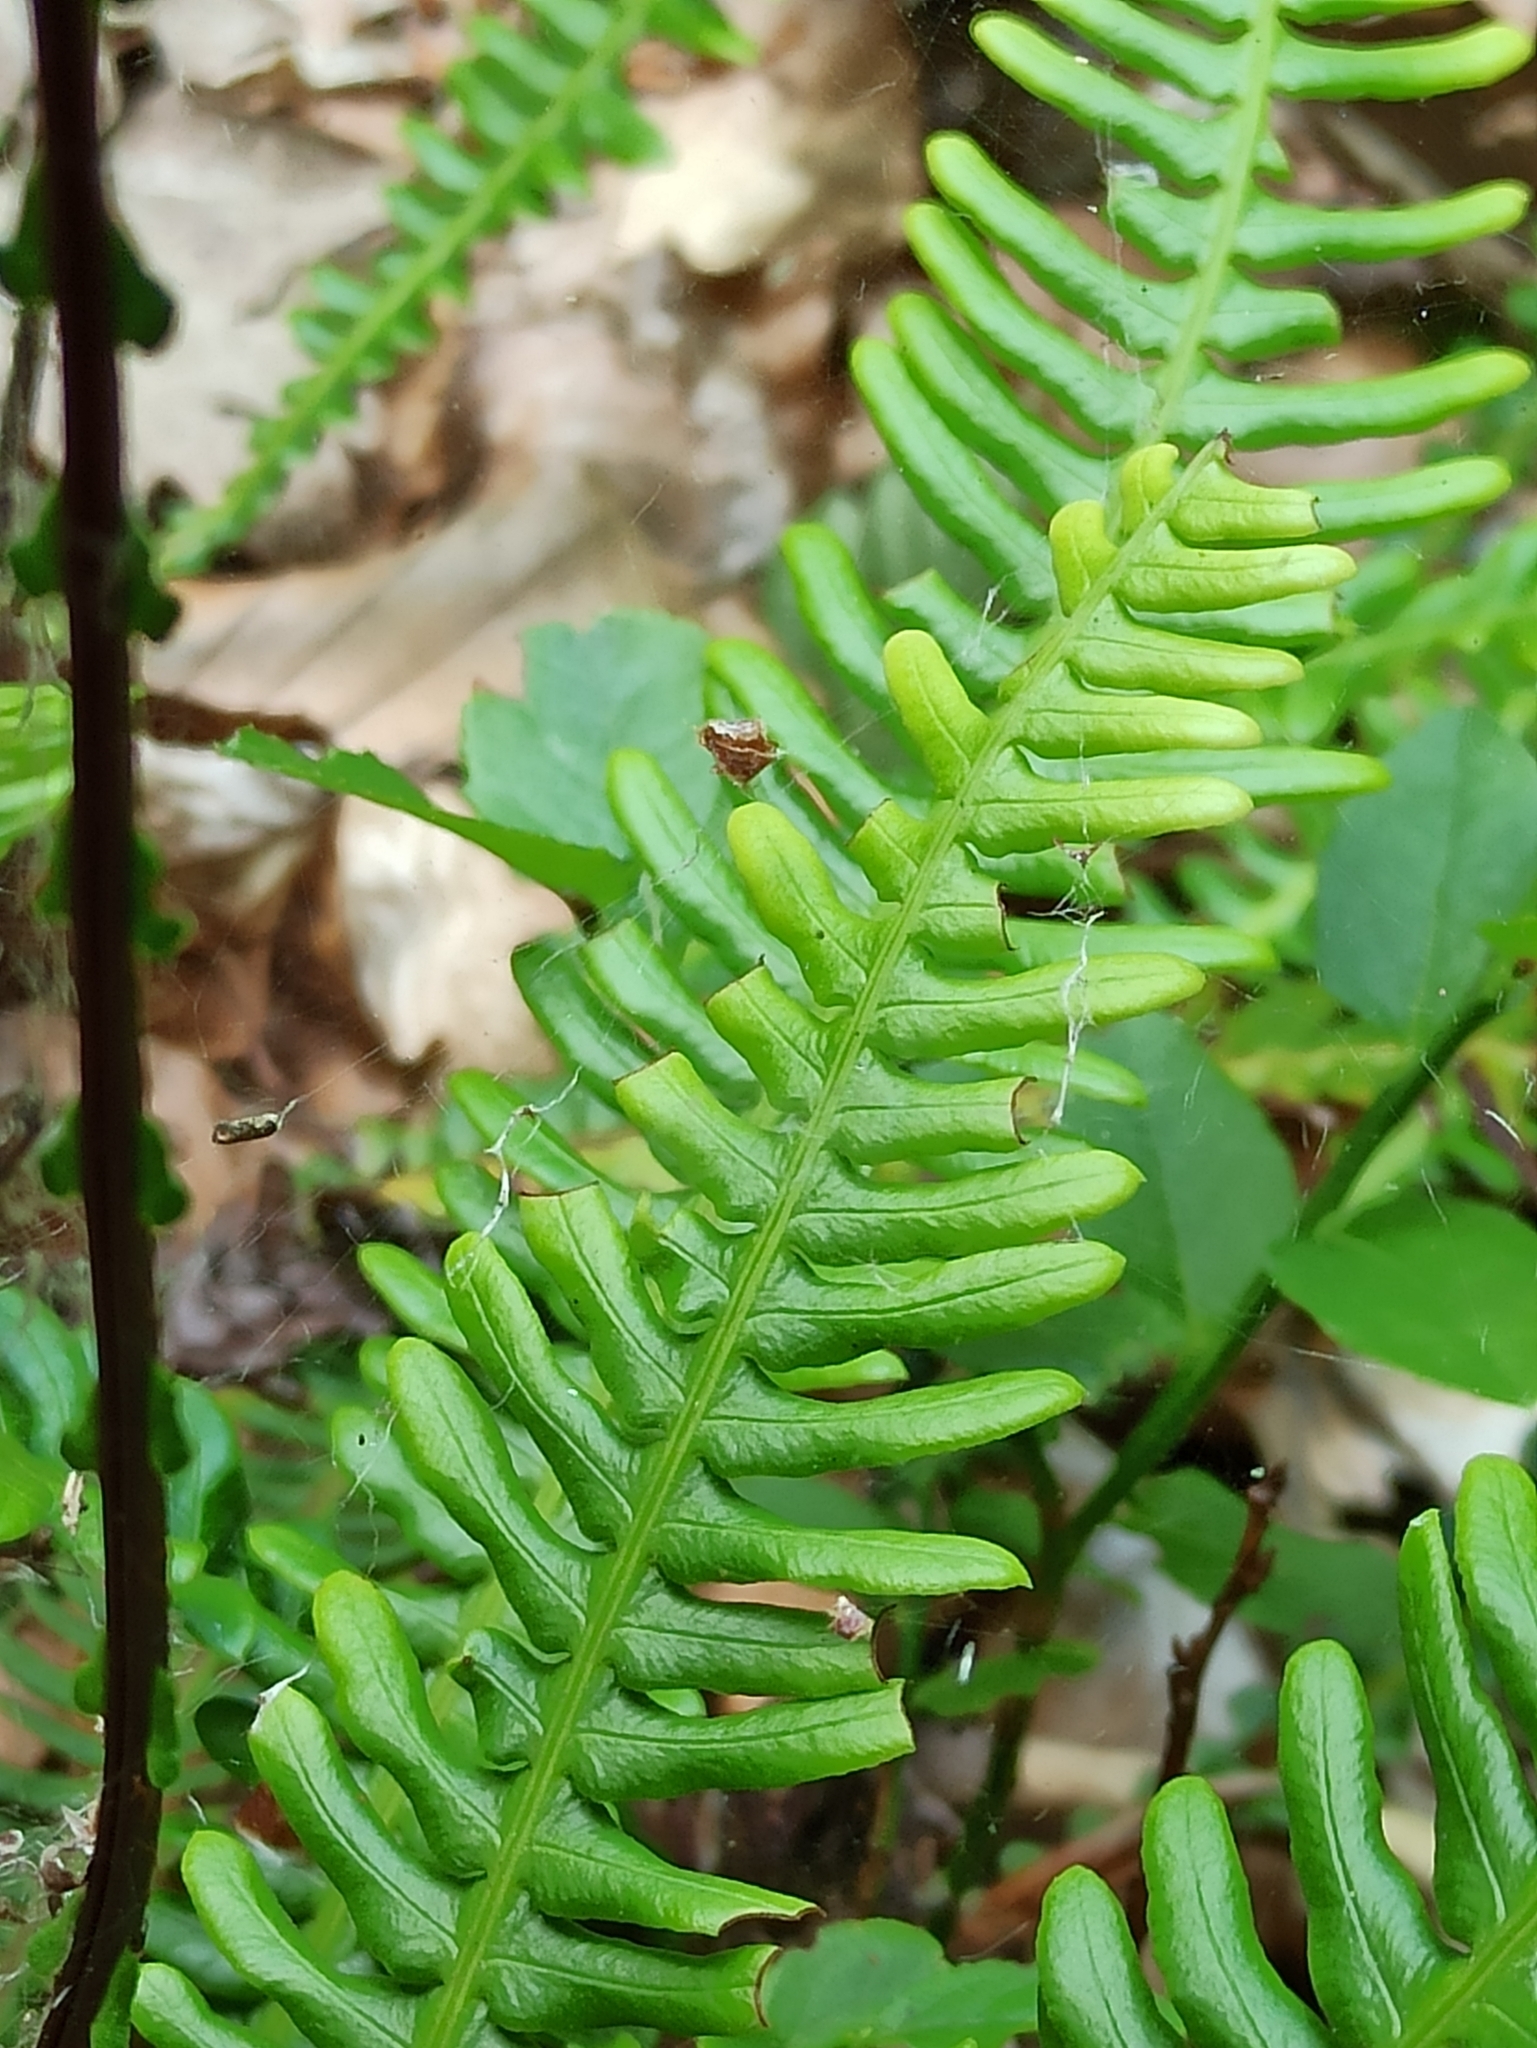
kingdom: Plantae
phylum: Tracheophyta
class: Polypodiopsida
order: Polypodiales
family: Blechnaceae
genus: Struthiopteris
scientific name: Struthiopteris spicant
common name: Deer fern
